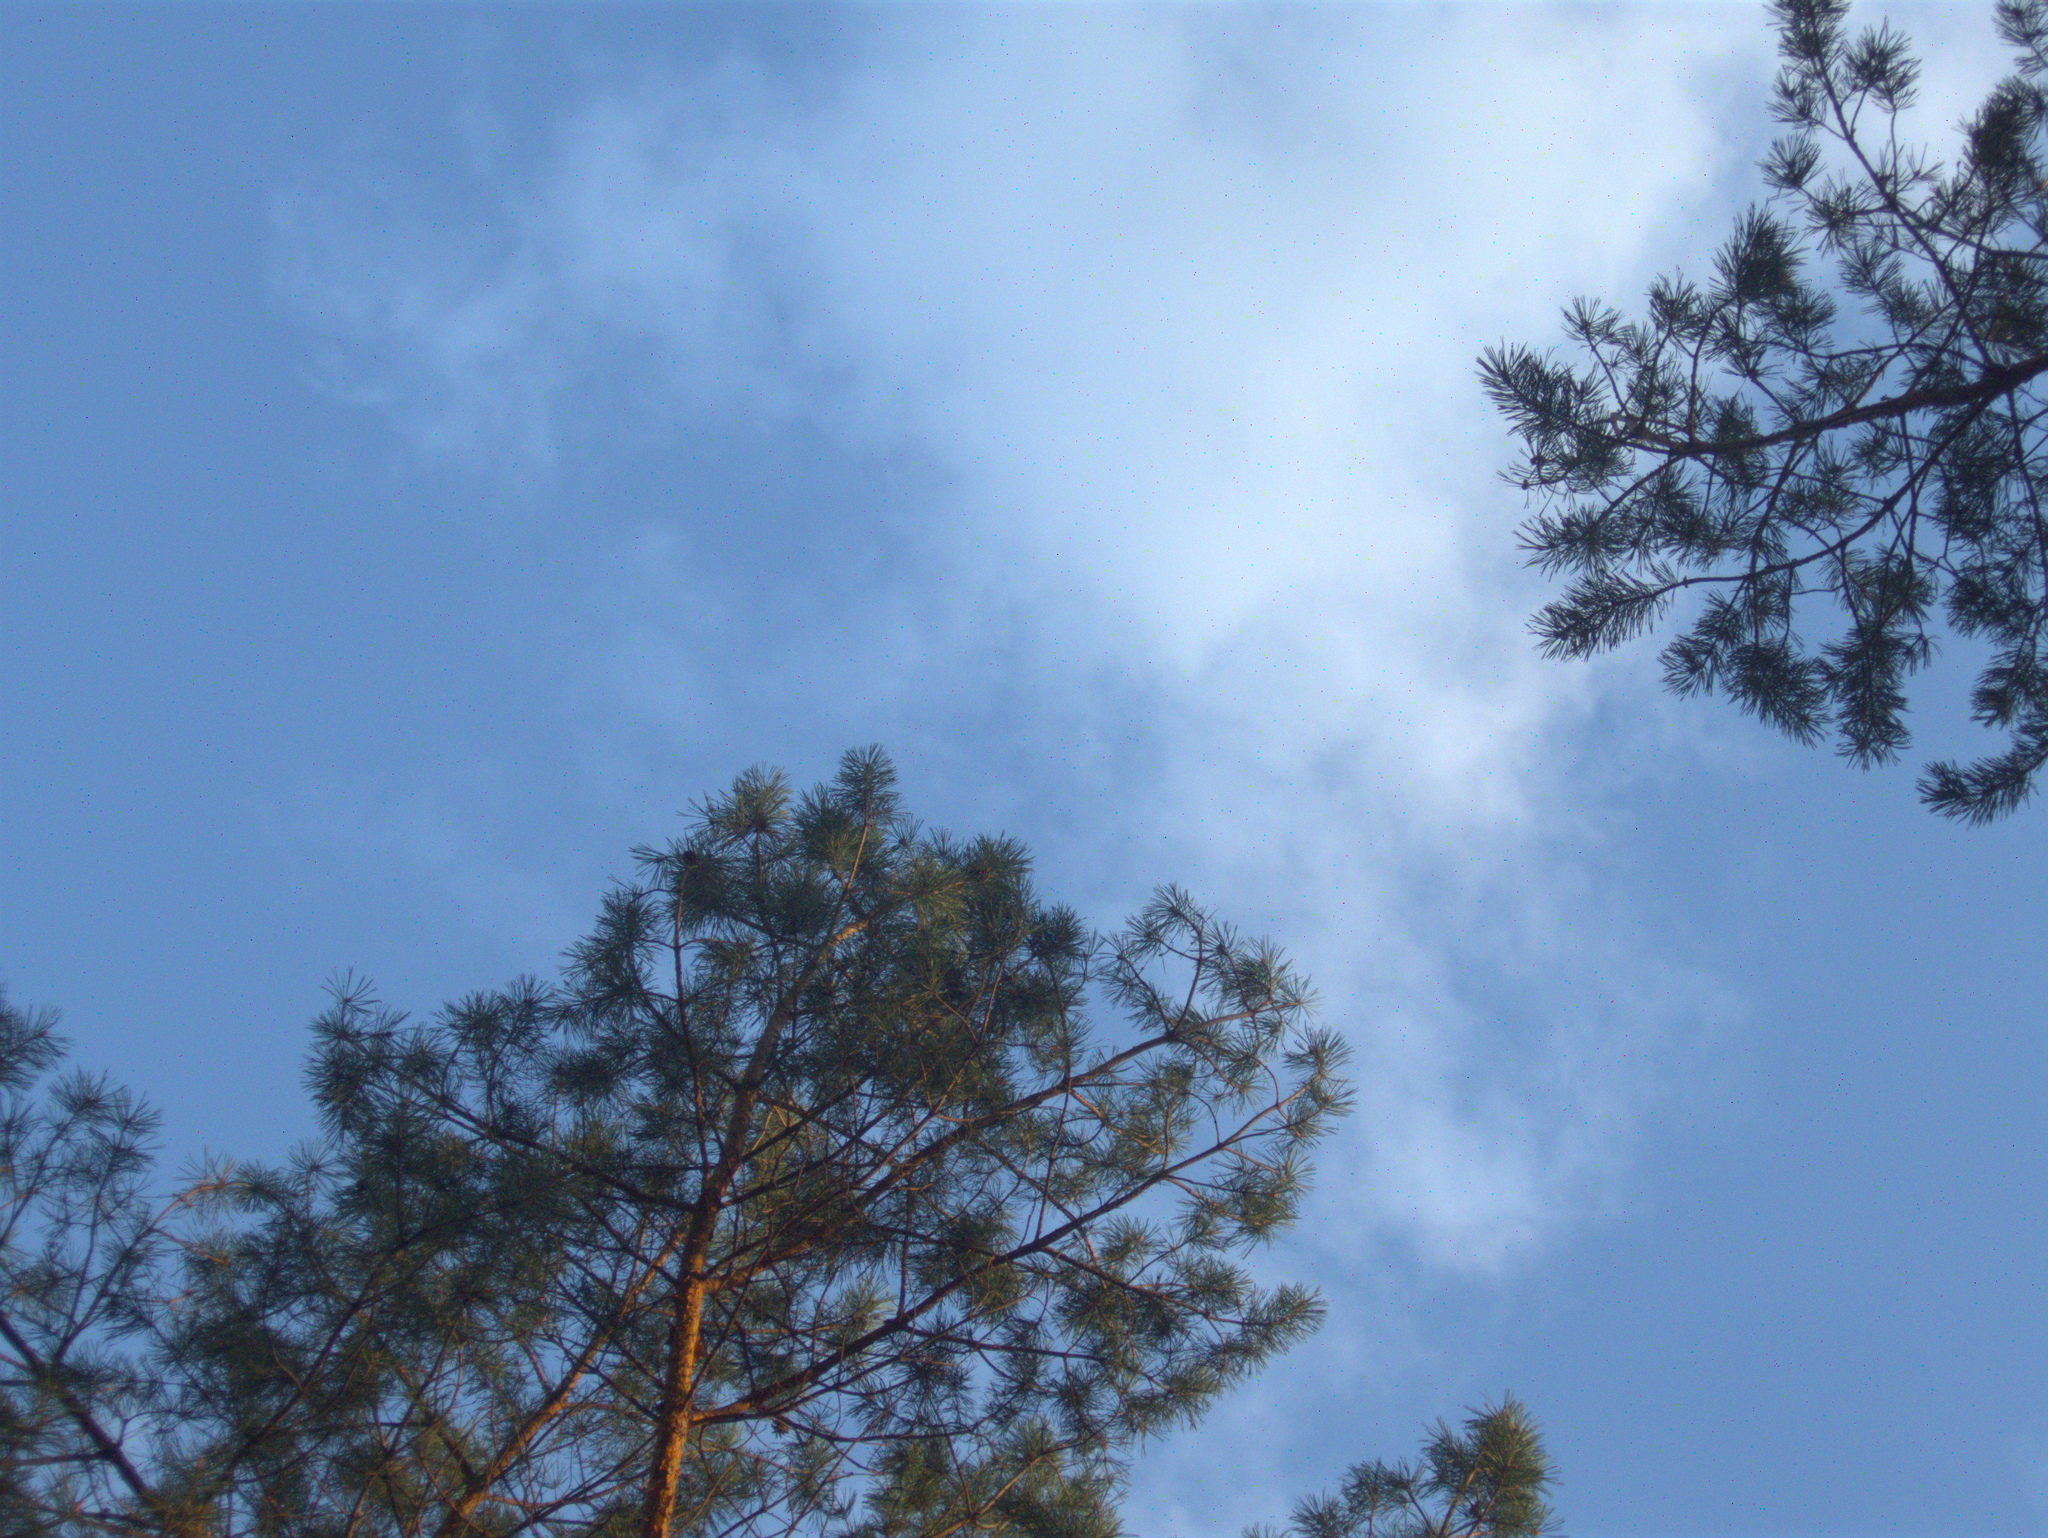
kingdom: Plantae
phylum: Tracheophyta
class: Pinopsida
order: Pinales
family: Pinaceae
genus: Pinus
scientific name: Pinus sylvestris
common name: Scots pine
